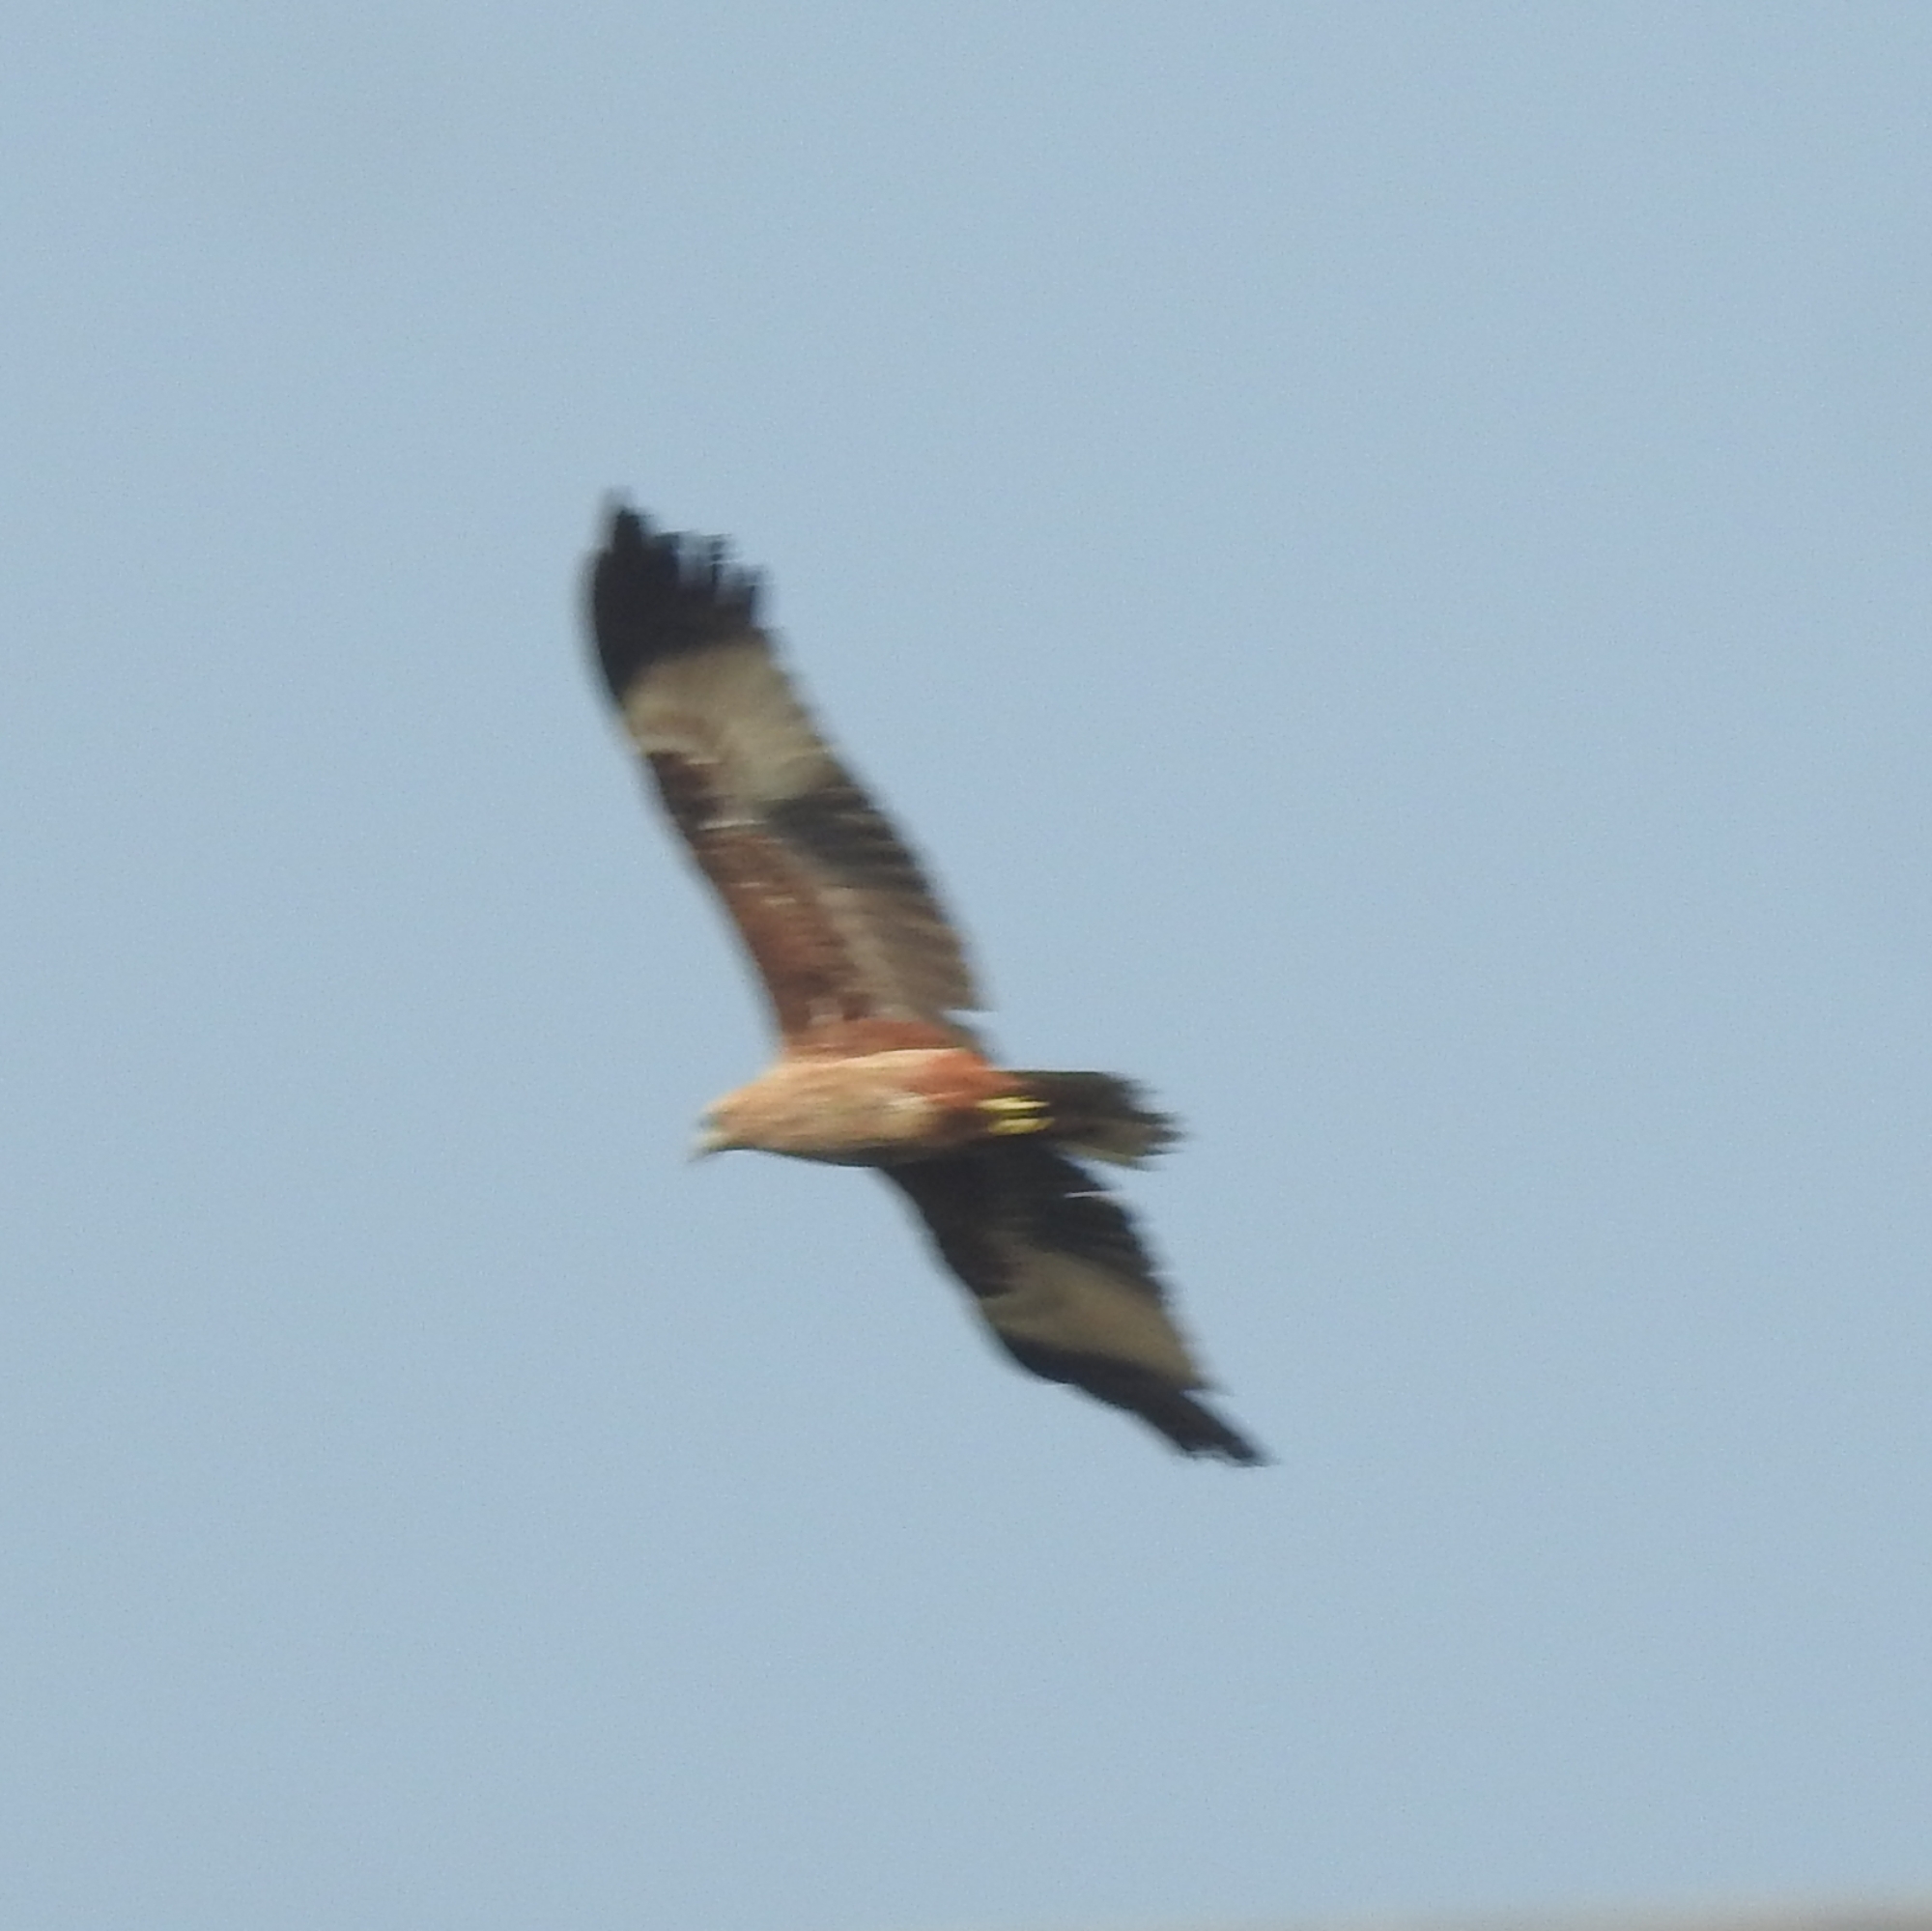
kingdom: Animalia
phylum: Chordata
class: Aves
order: Accipitriformes
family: Accipitridae
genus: Haliastur
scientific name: Haliastur indus
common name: Brahminy kite
